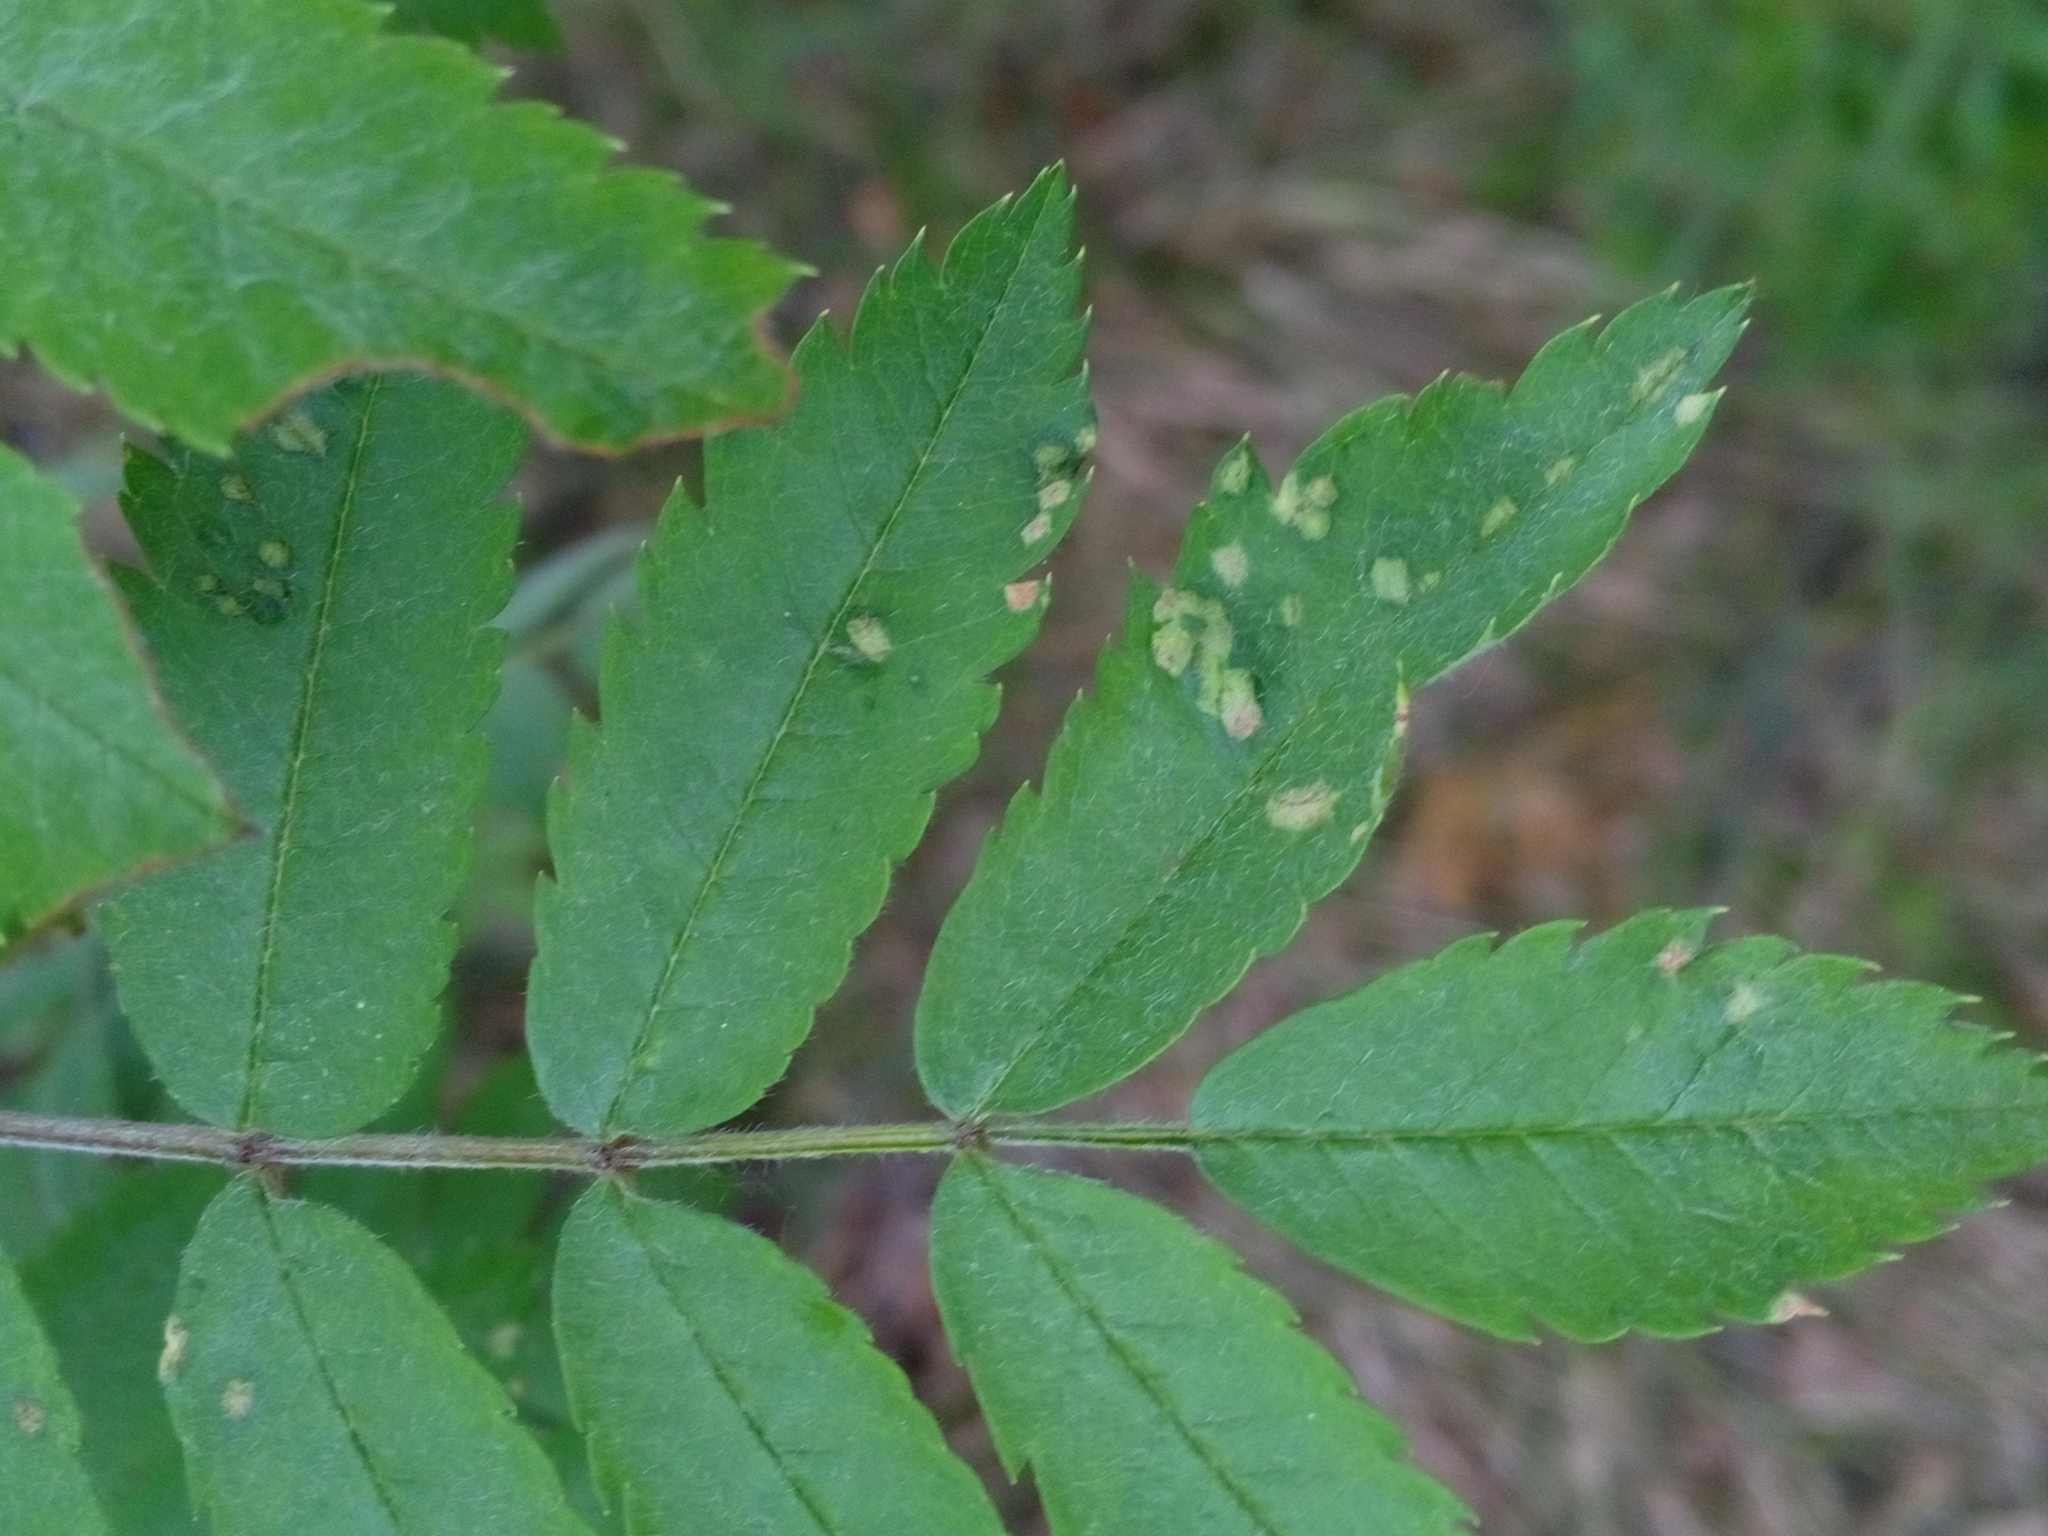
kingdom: Animalia
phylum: Arthropoda
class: Arachnida
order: Trombidiformes
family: Eriophyidae
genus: Eriophyes
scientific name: Eriophyes sorbi
